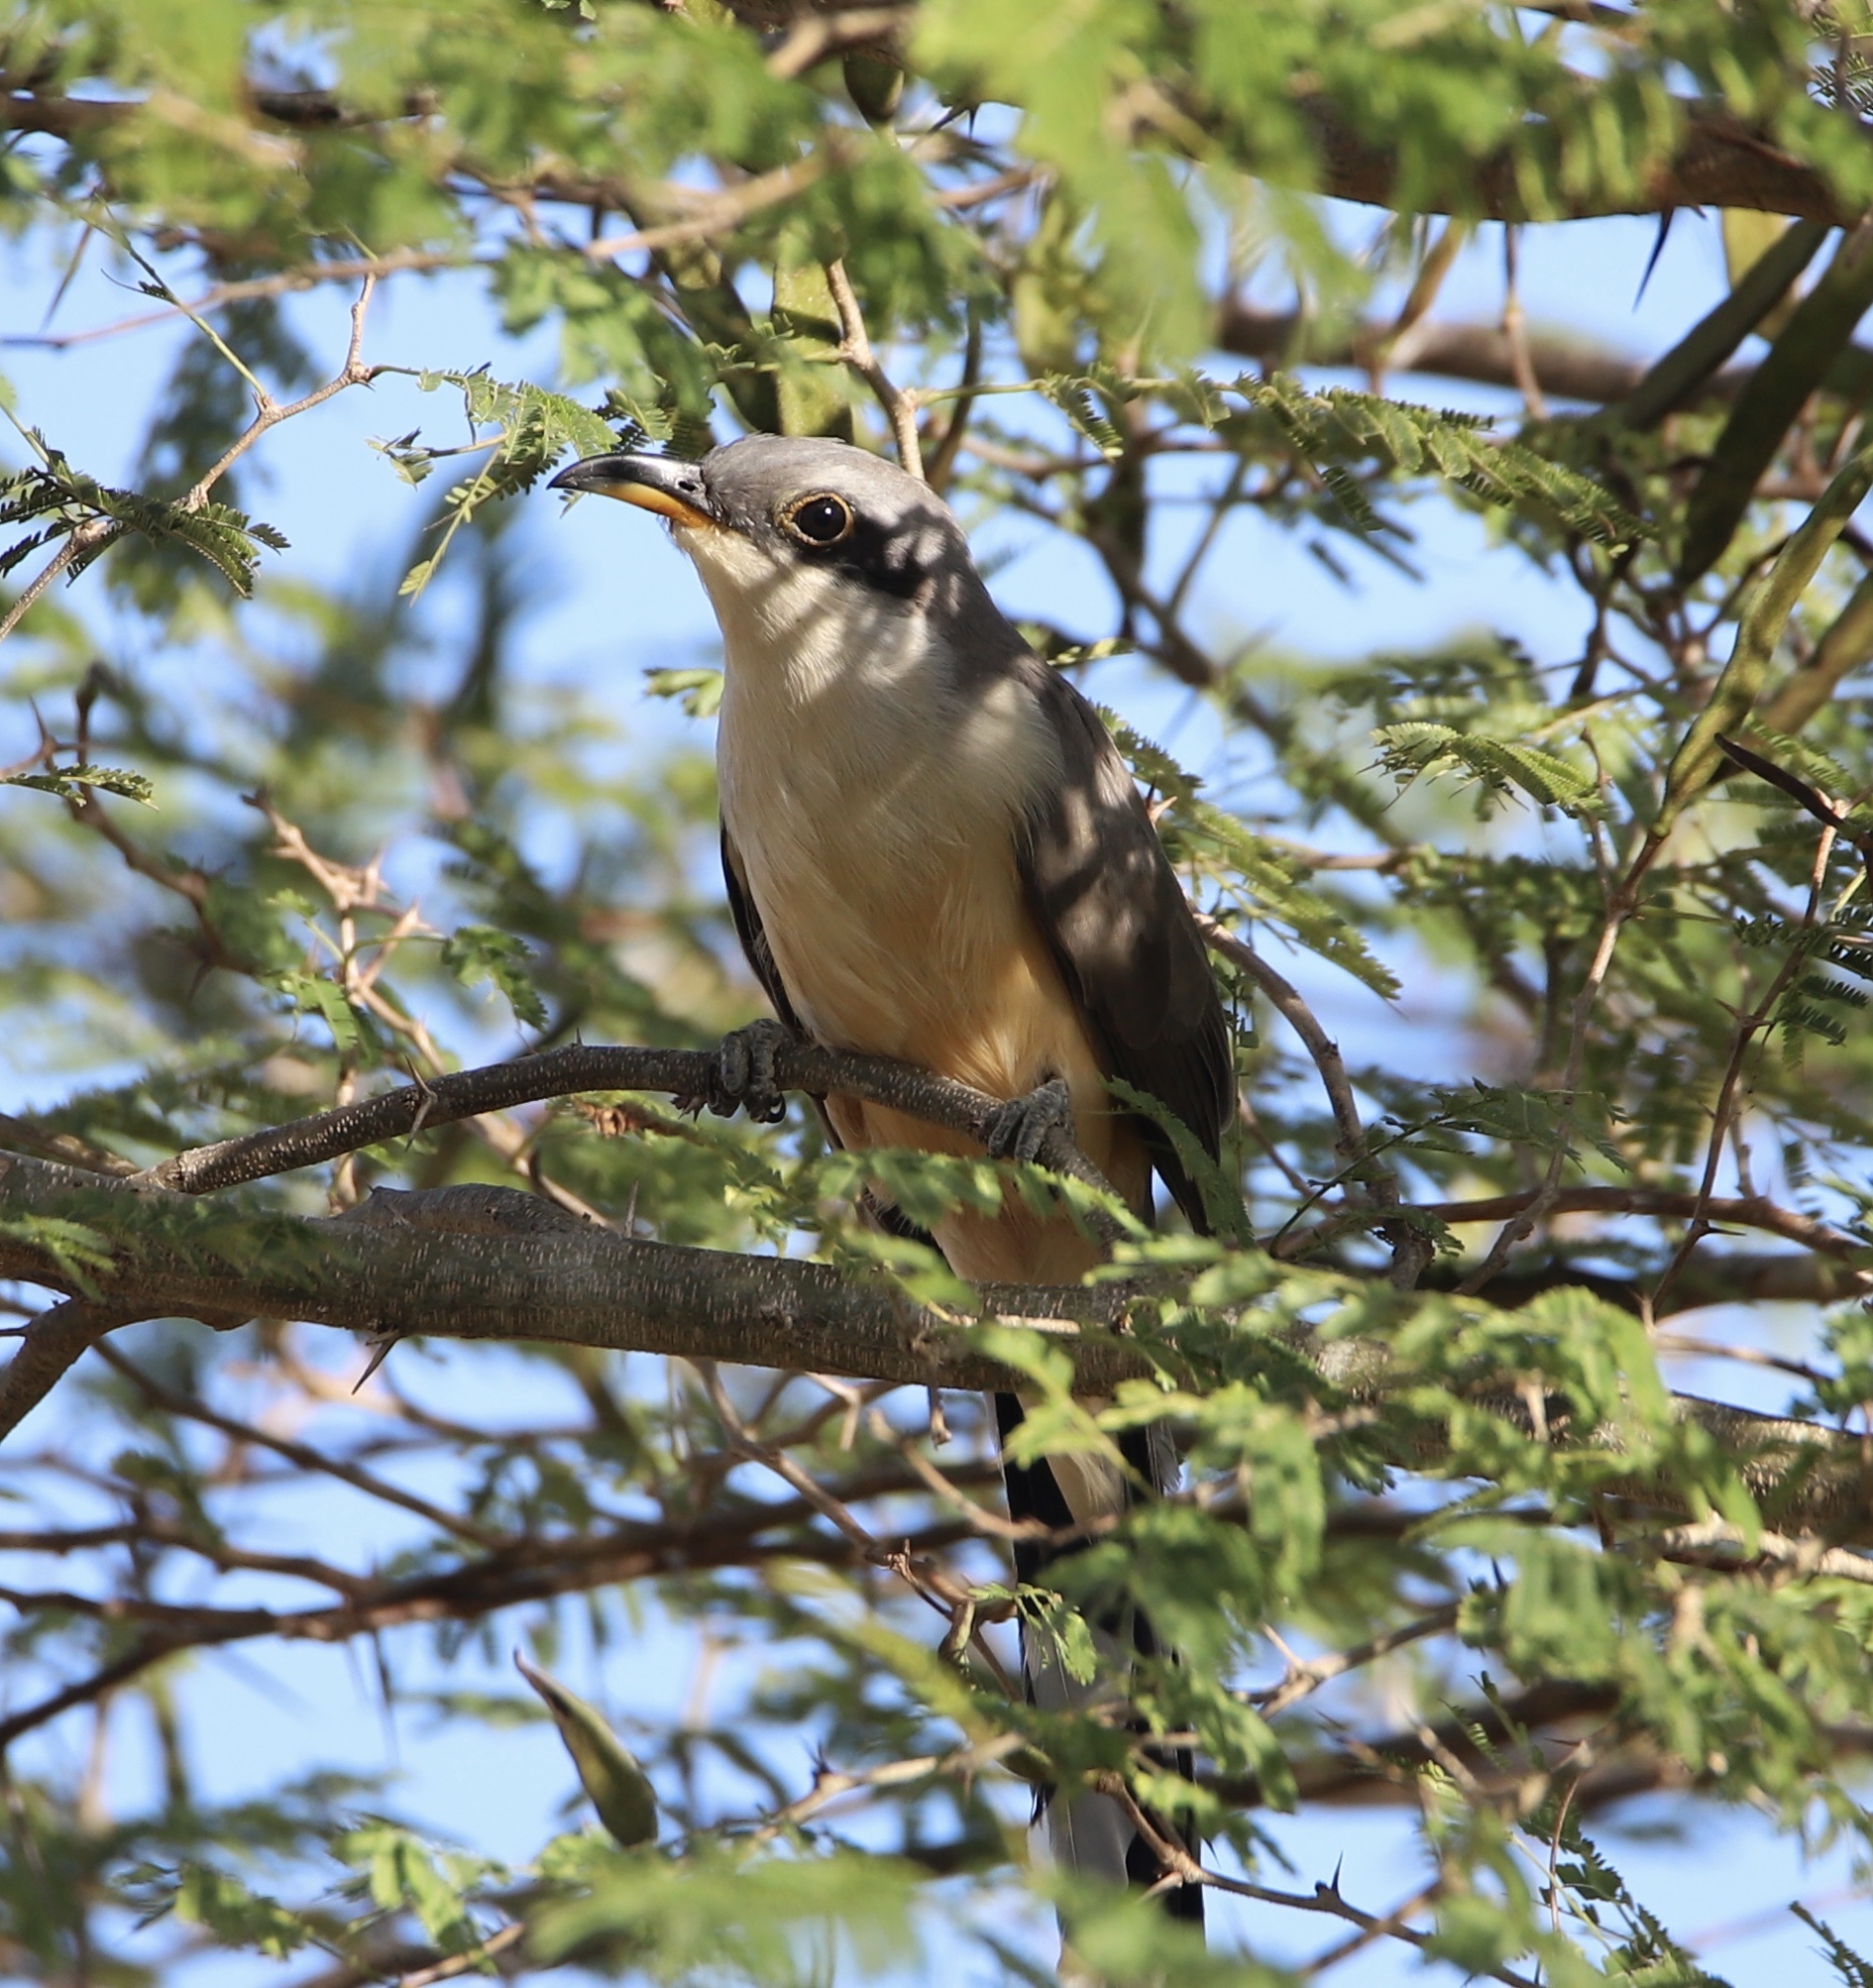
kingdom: Animalia
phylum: Chordata
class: Aves
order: Cuculiformes
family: Cuculidae
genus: Coccyzus
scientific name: Coccyzus minor
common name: Mangrove cuckoo
